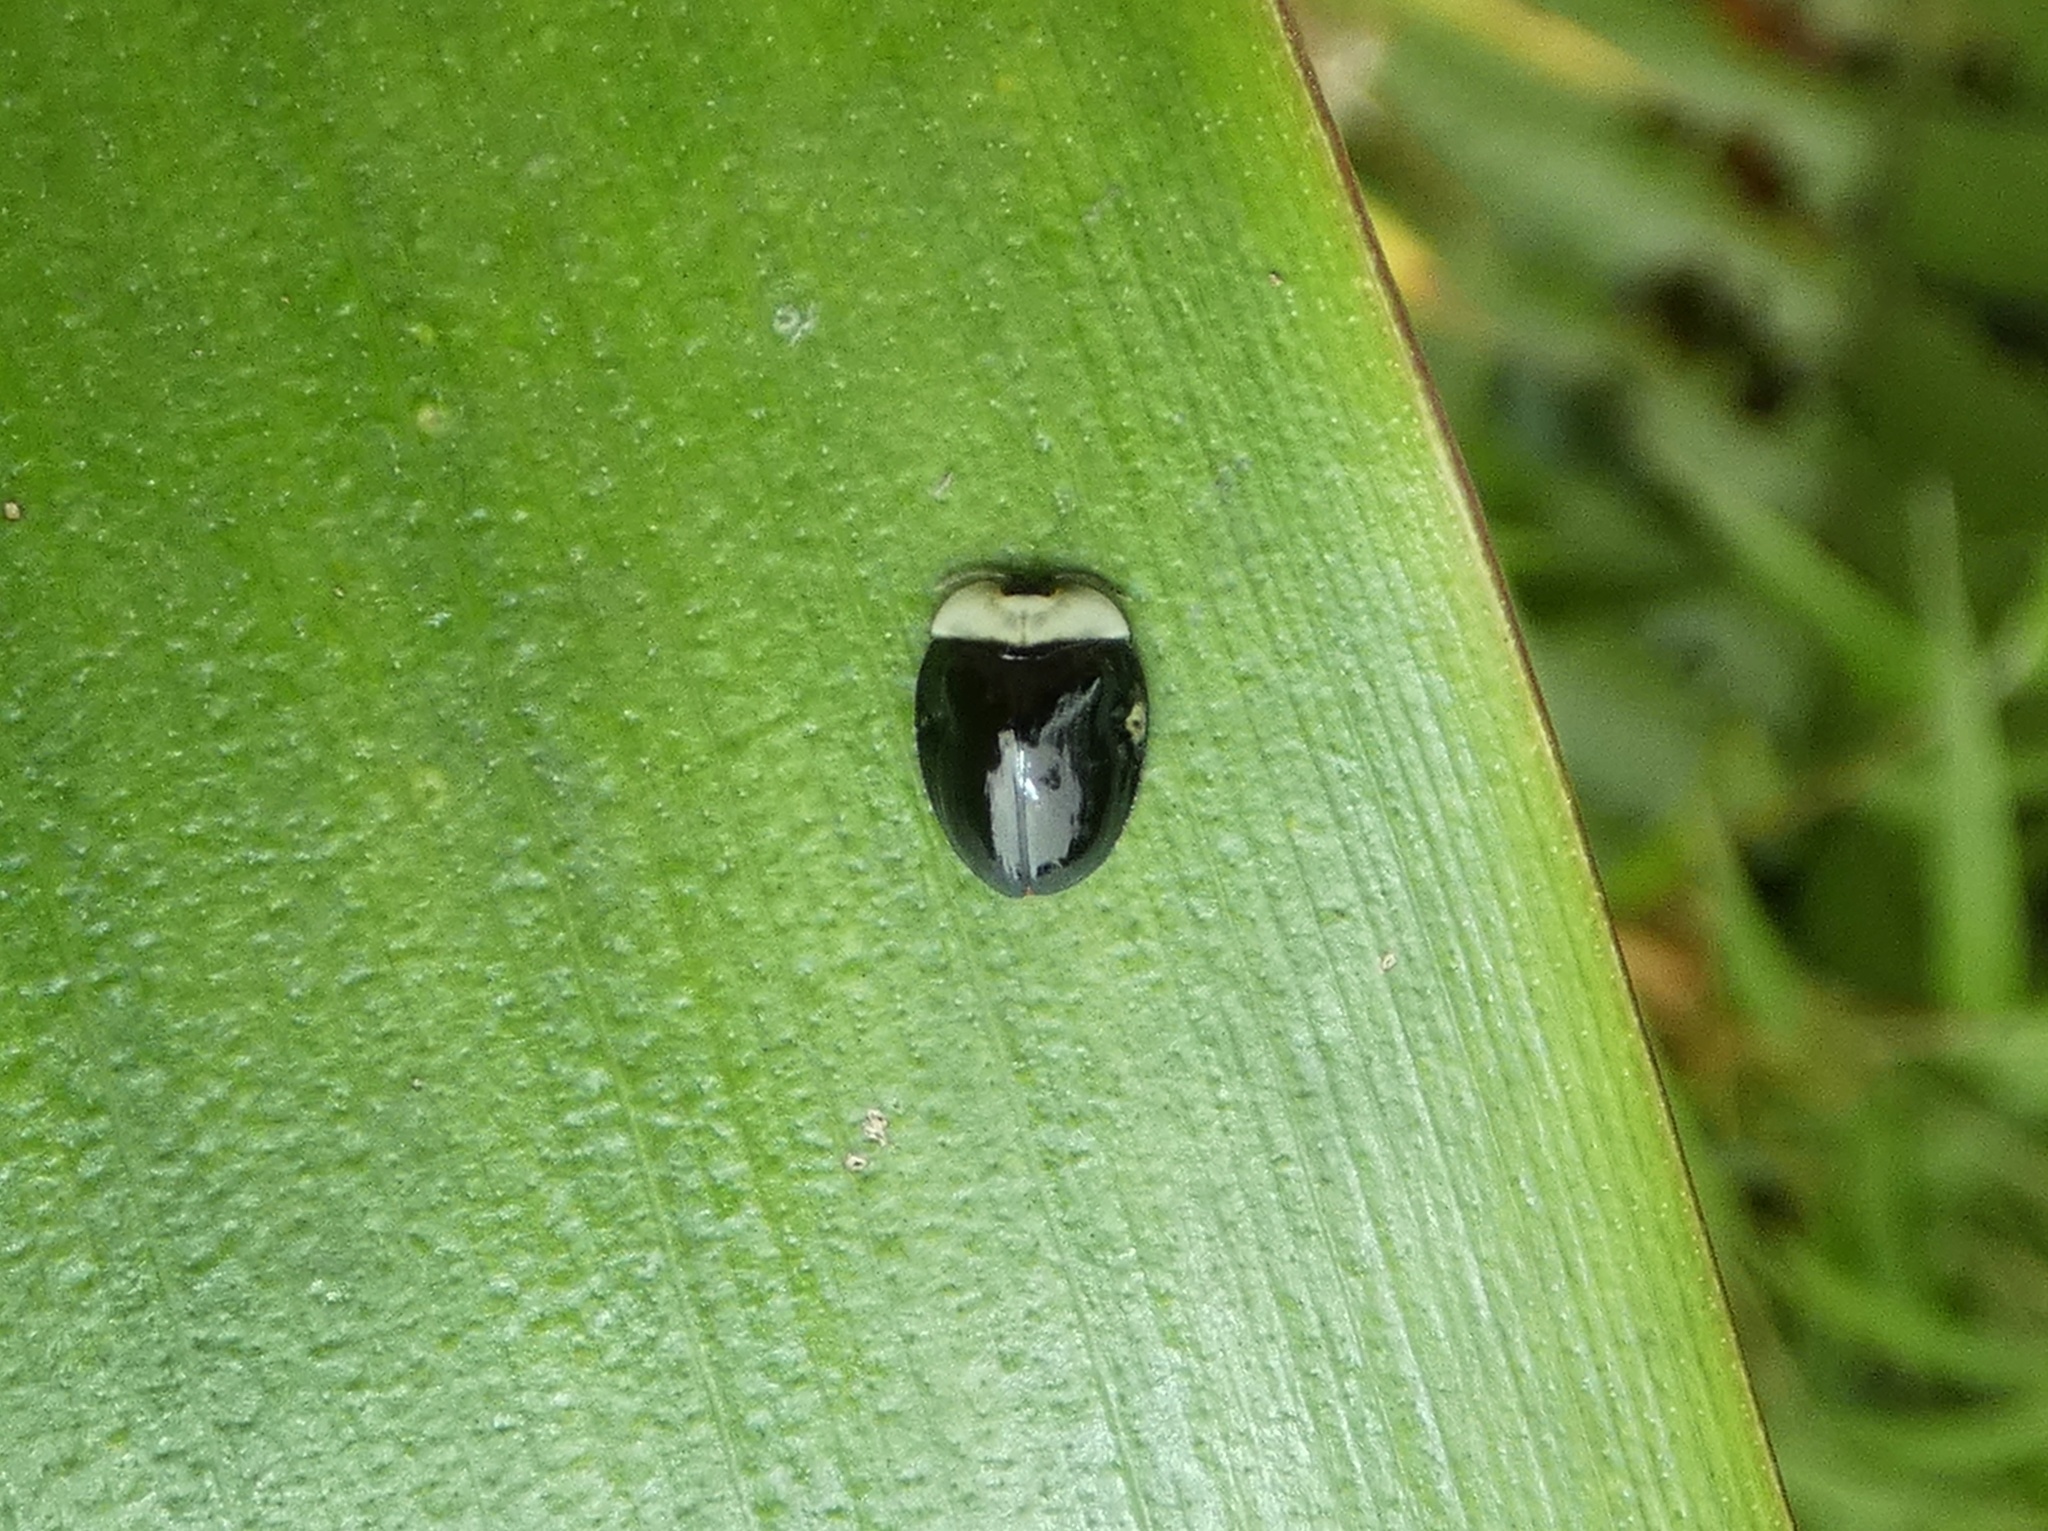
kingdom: Animalia
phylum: Arthropoda
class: Insecta
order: Coleoptera
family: Chrysomelidae
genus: Imatidium
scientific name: Imatidium thoracicum
